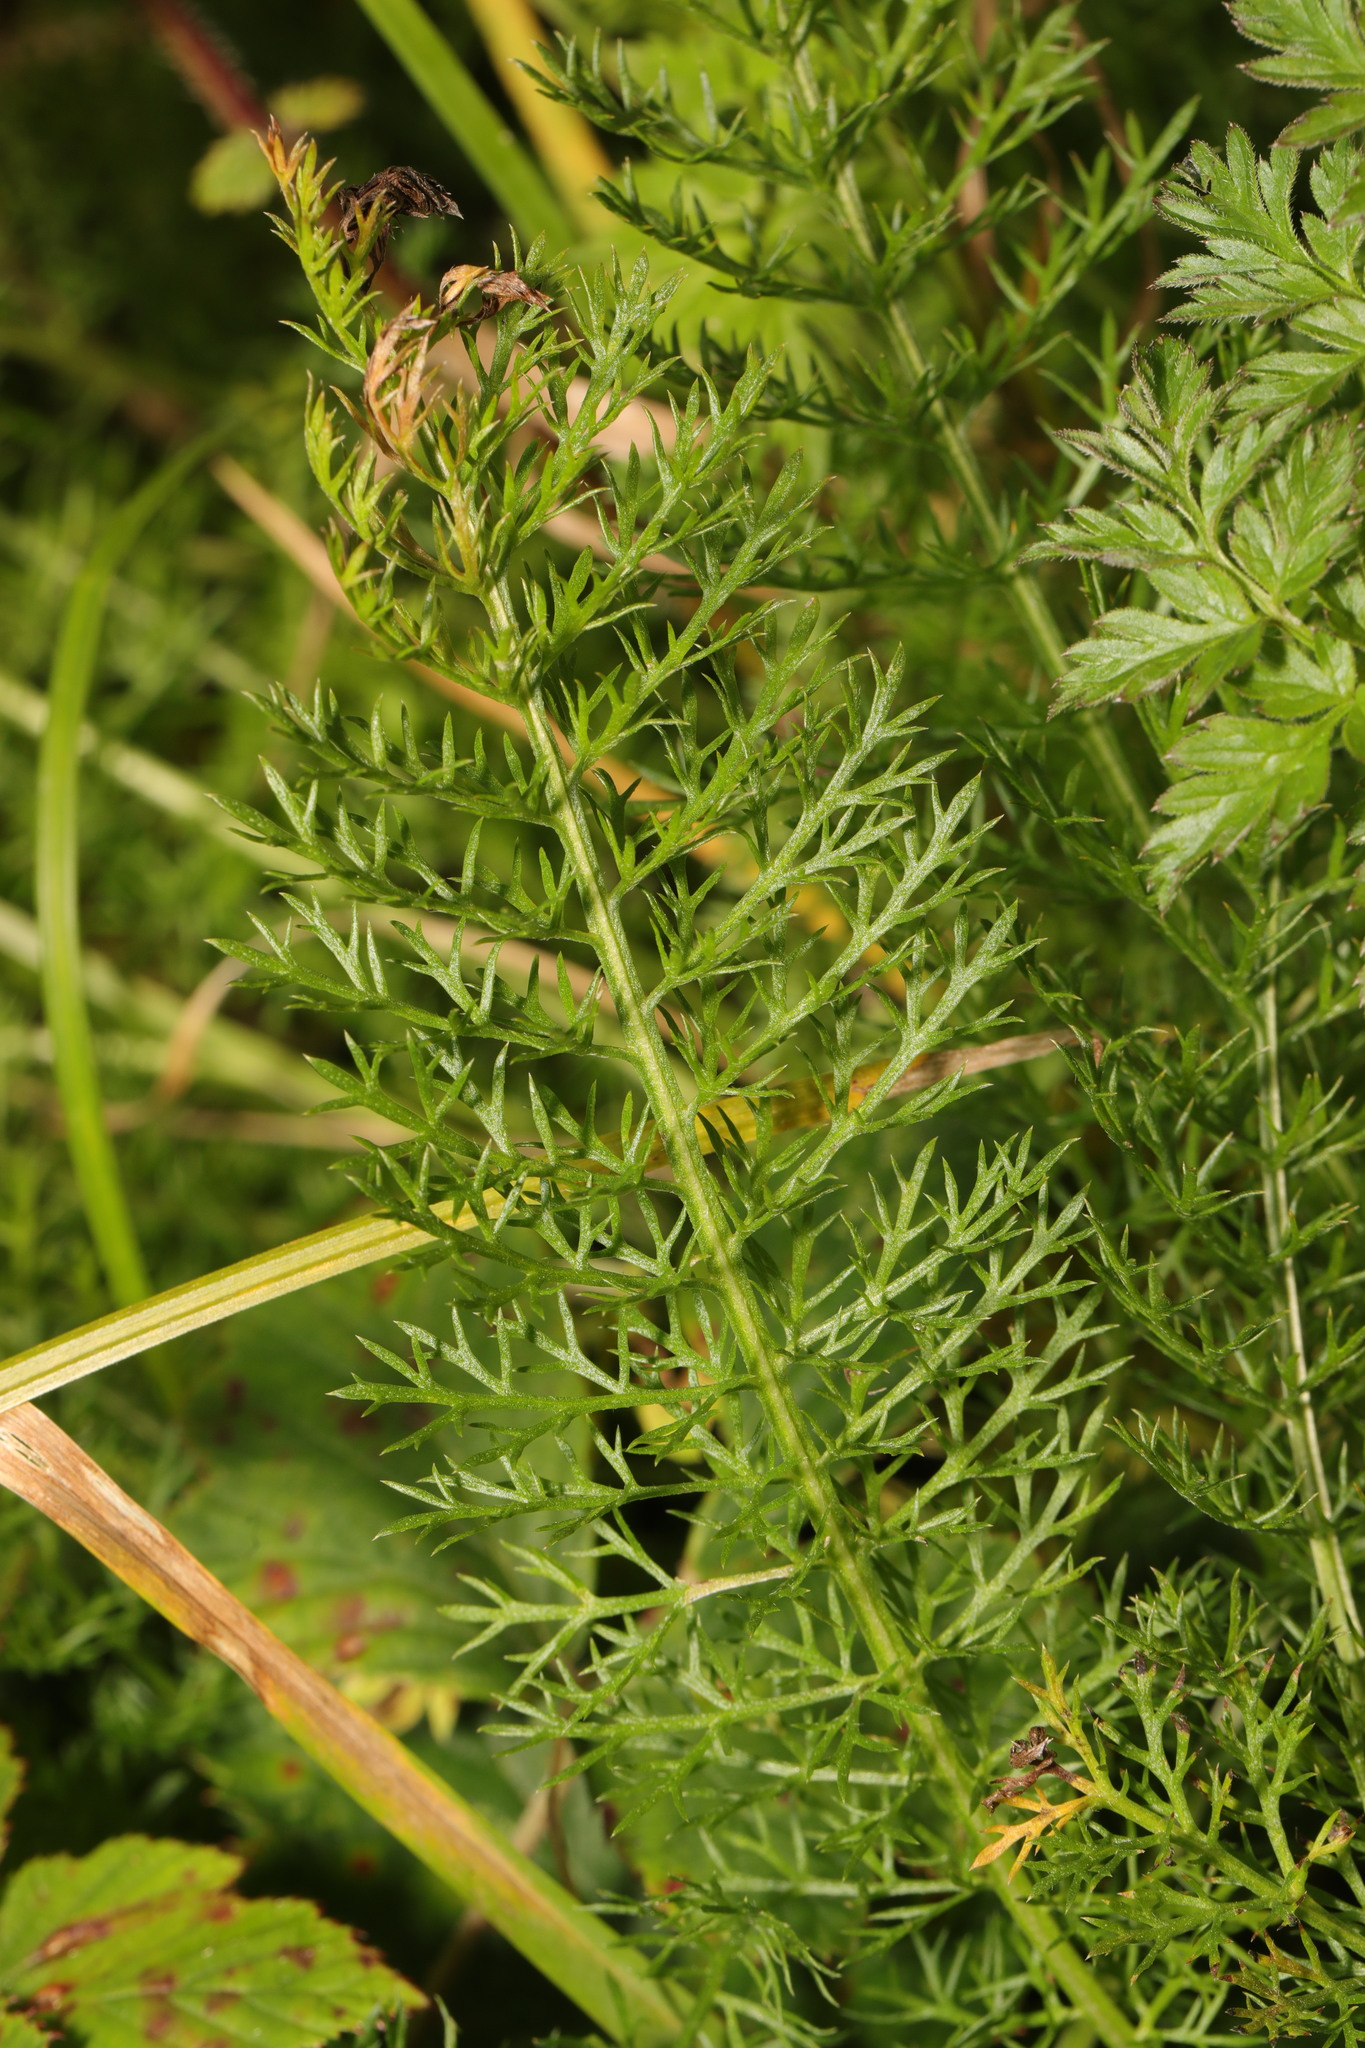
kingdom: Plantae
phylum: Tracheophyta
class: Magnoliopsida
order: Asterales
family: Asteraceae
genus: Achillea
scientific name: Achillea millefolium
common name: Yarrow
